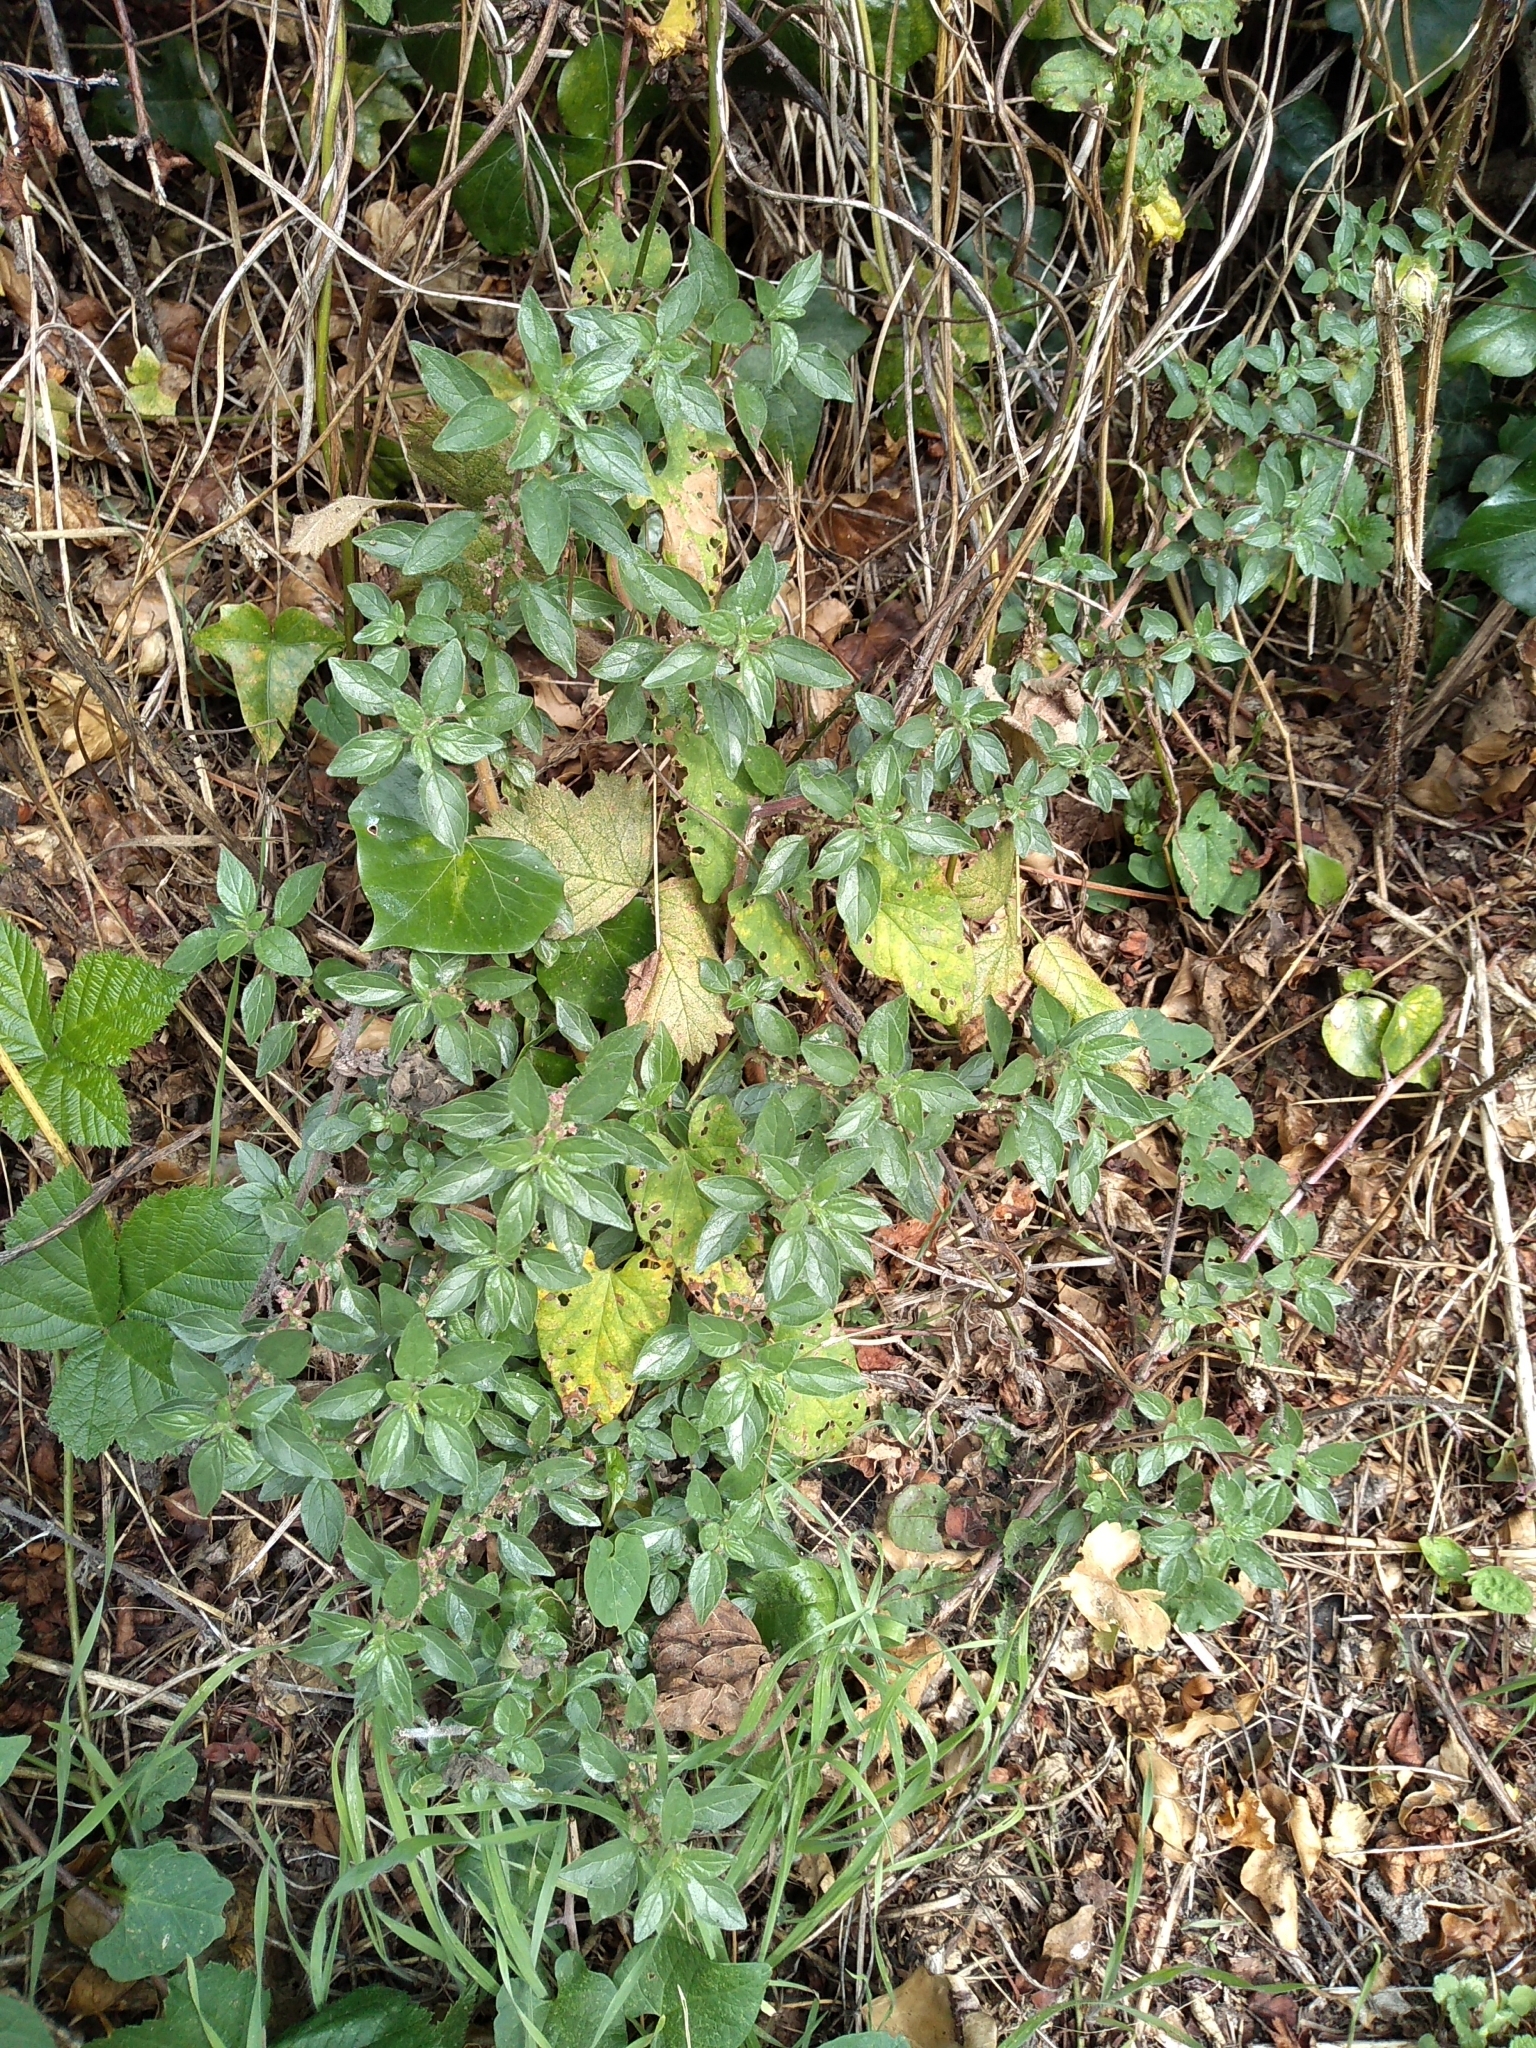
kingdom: Plantae
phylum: Tracheophyta
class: Magnoliopsida
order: Rosales
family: Urticaceae
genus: Parietaria
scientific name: Parietaria judaica
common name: Pellitory-of-the-wall
